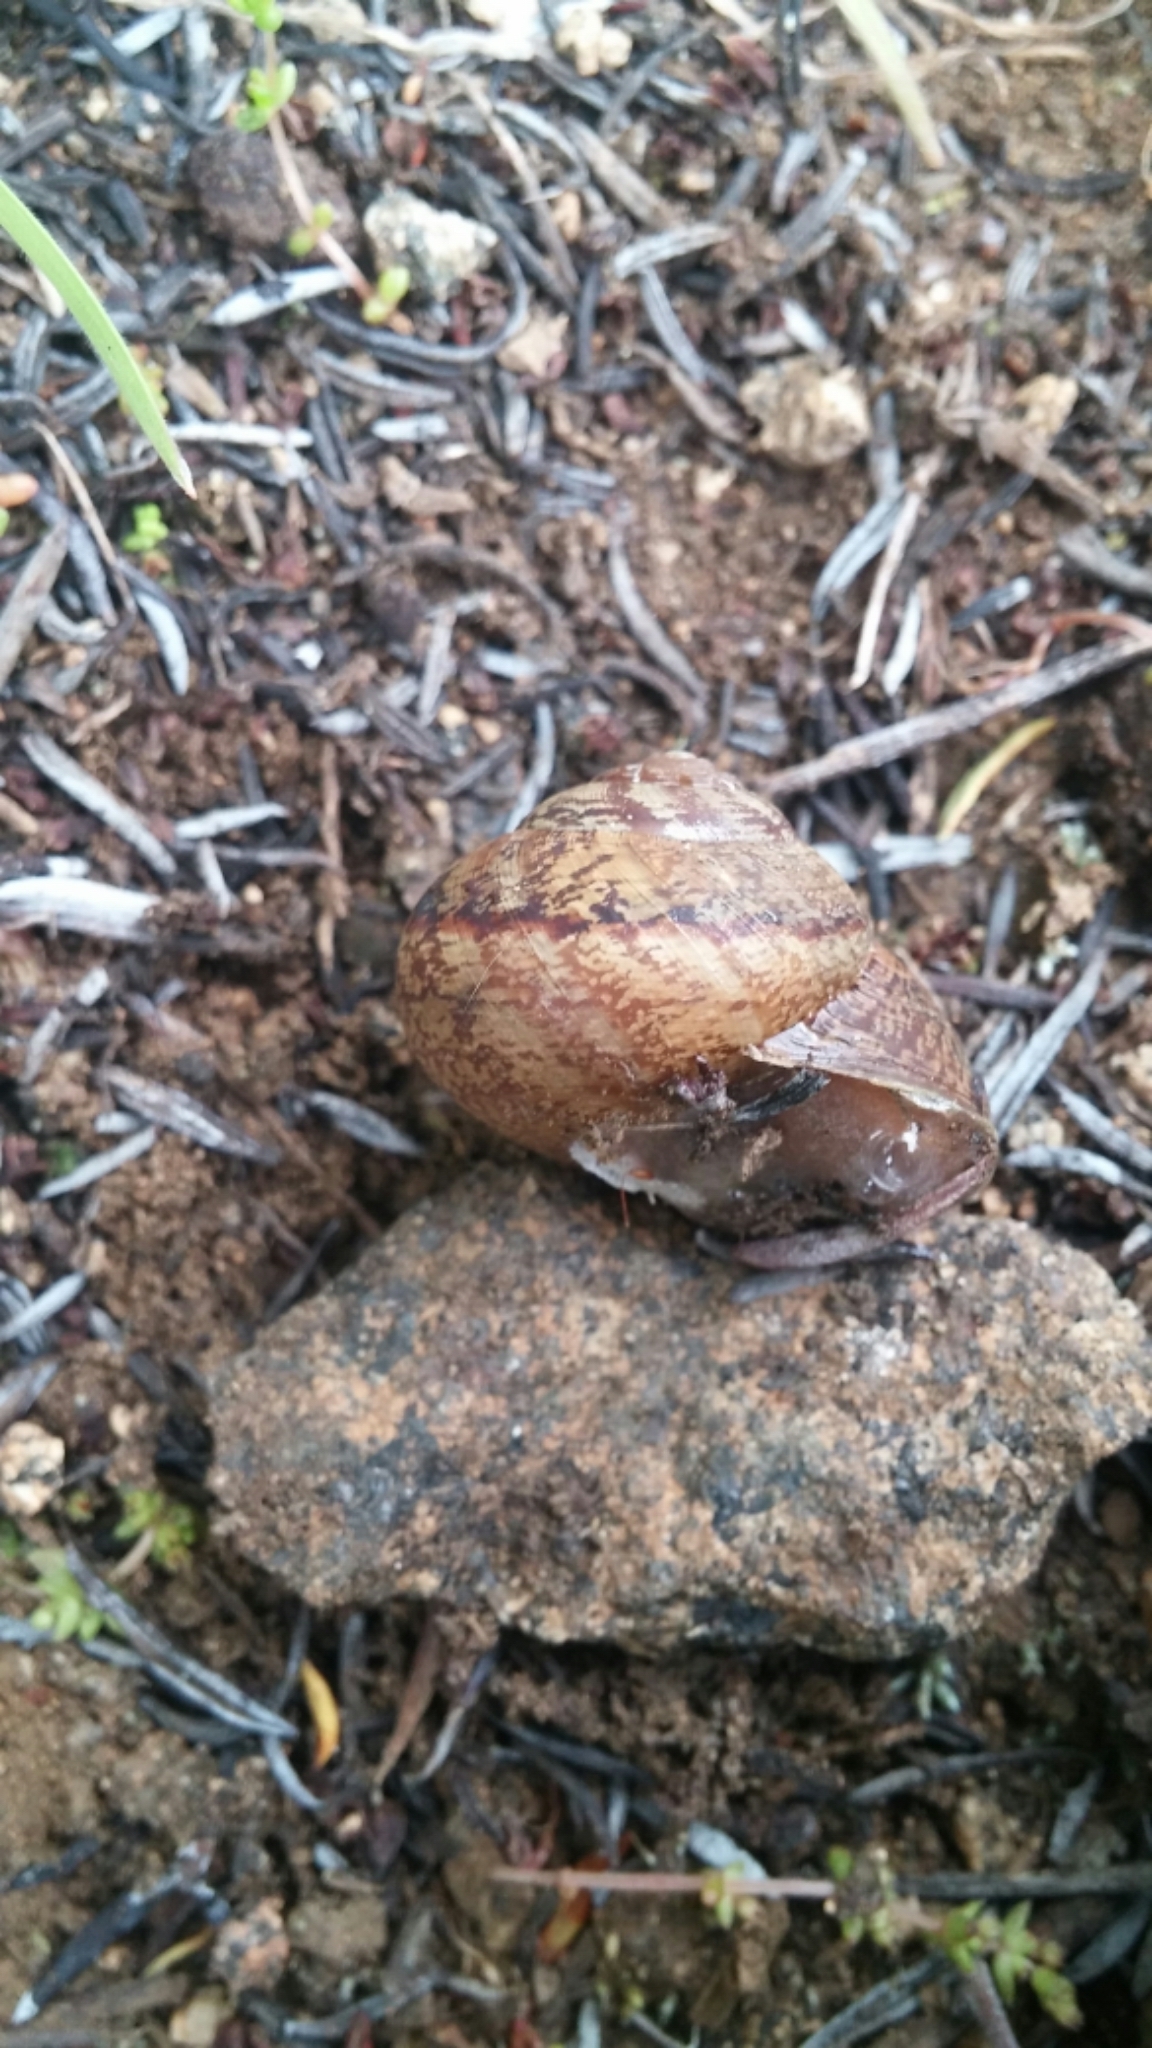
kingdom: Animalia
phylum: Mollusca
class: Gastropoda
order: Stylommatophora
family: Xanthonychidae
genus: Xerarionta
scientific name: Xerarionta stearnsiana
